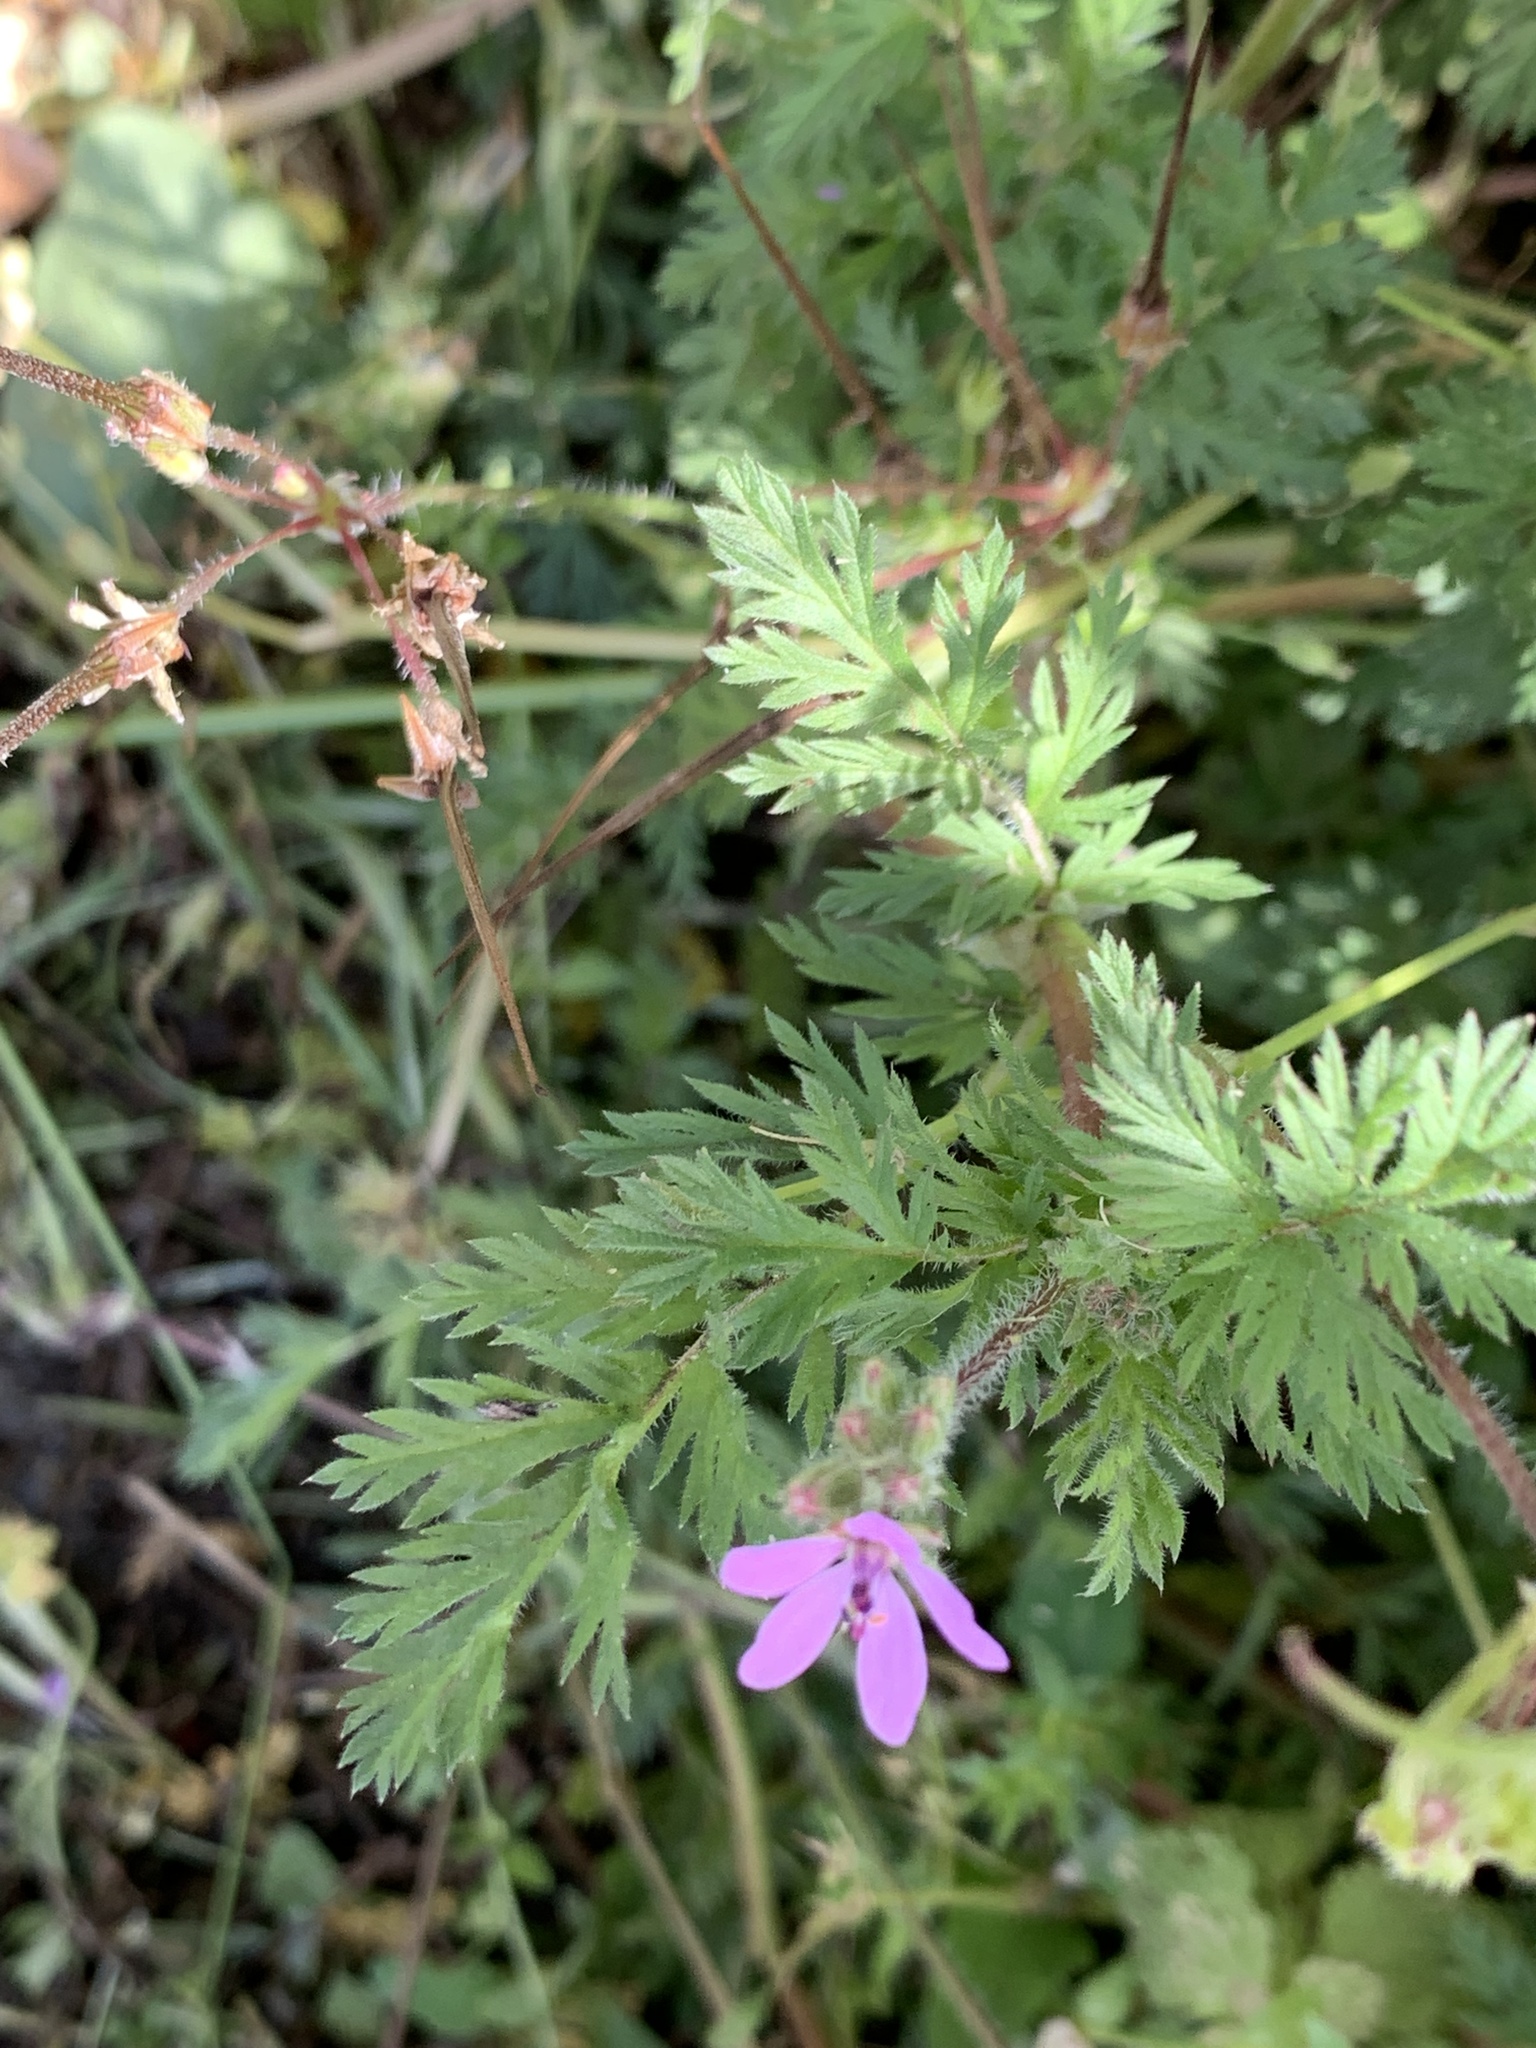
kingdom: Plantae
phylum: Tracheophyta
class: Magnoliopsida
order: Geraniales
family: Geraniaceae
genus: Erodium
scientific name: Erodium cicutarium
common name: Common stork's-bill
